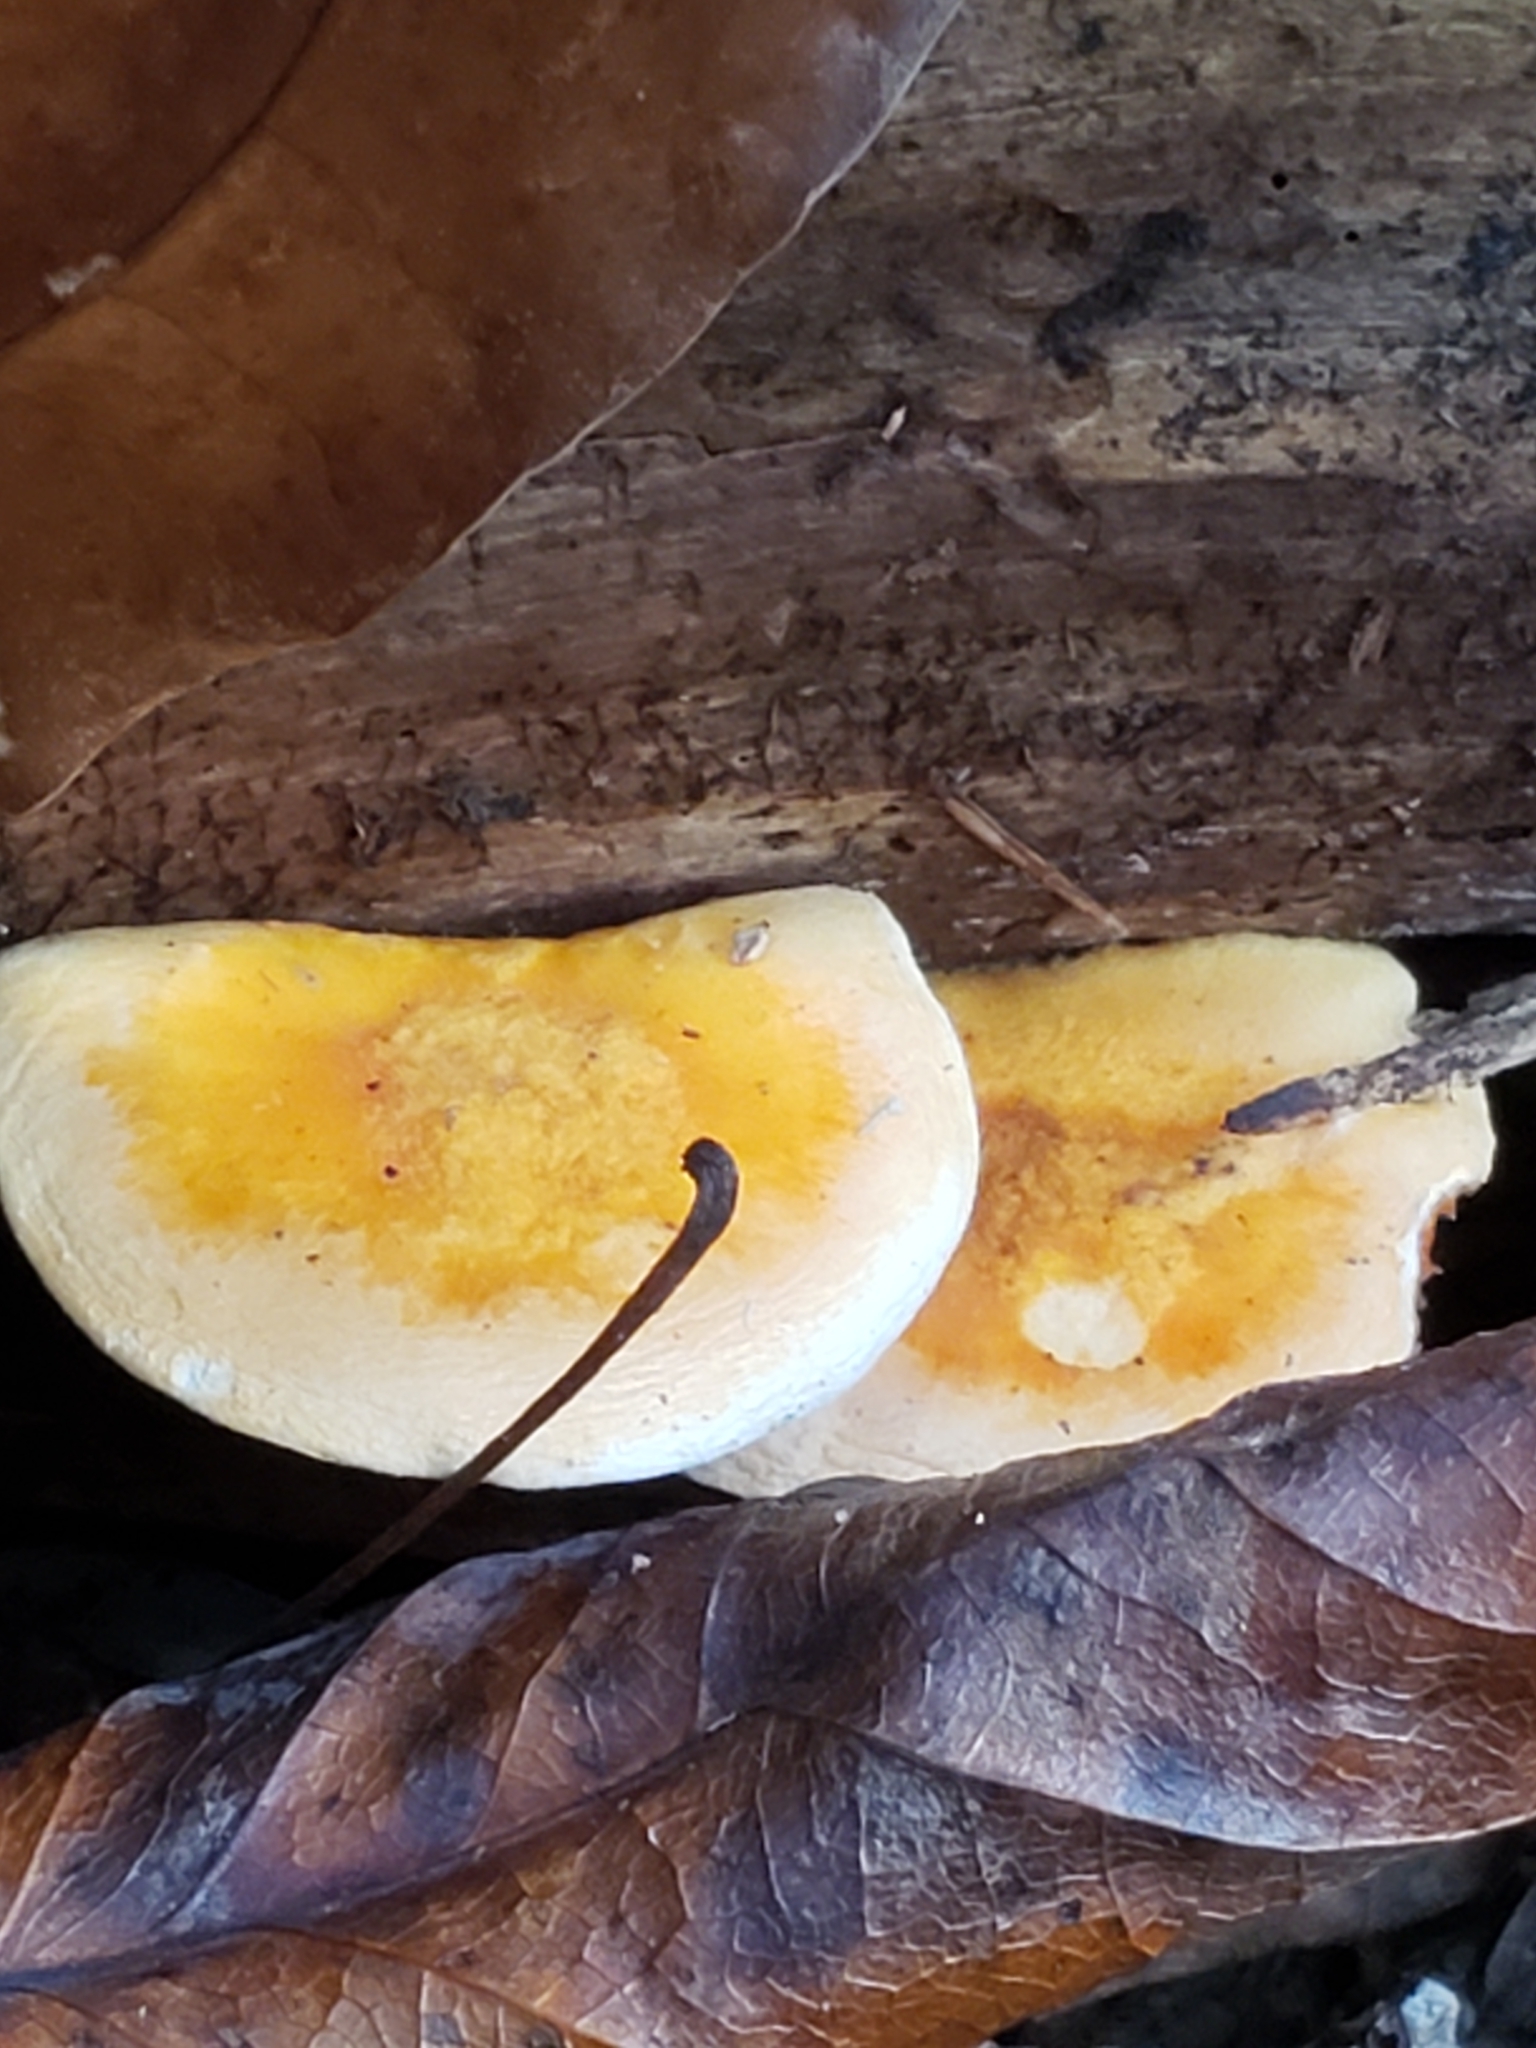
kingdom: Fungi
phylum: Basidiomycota
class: Agaricomycetes
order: Boletales
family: Hygrophoropsidaceae
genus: Hygrophoropsis
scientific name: Hygrophoropsis aurantiaca
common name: False chanterelle
